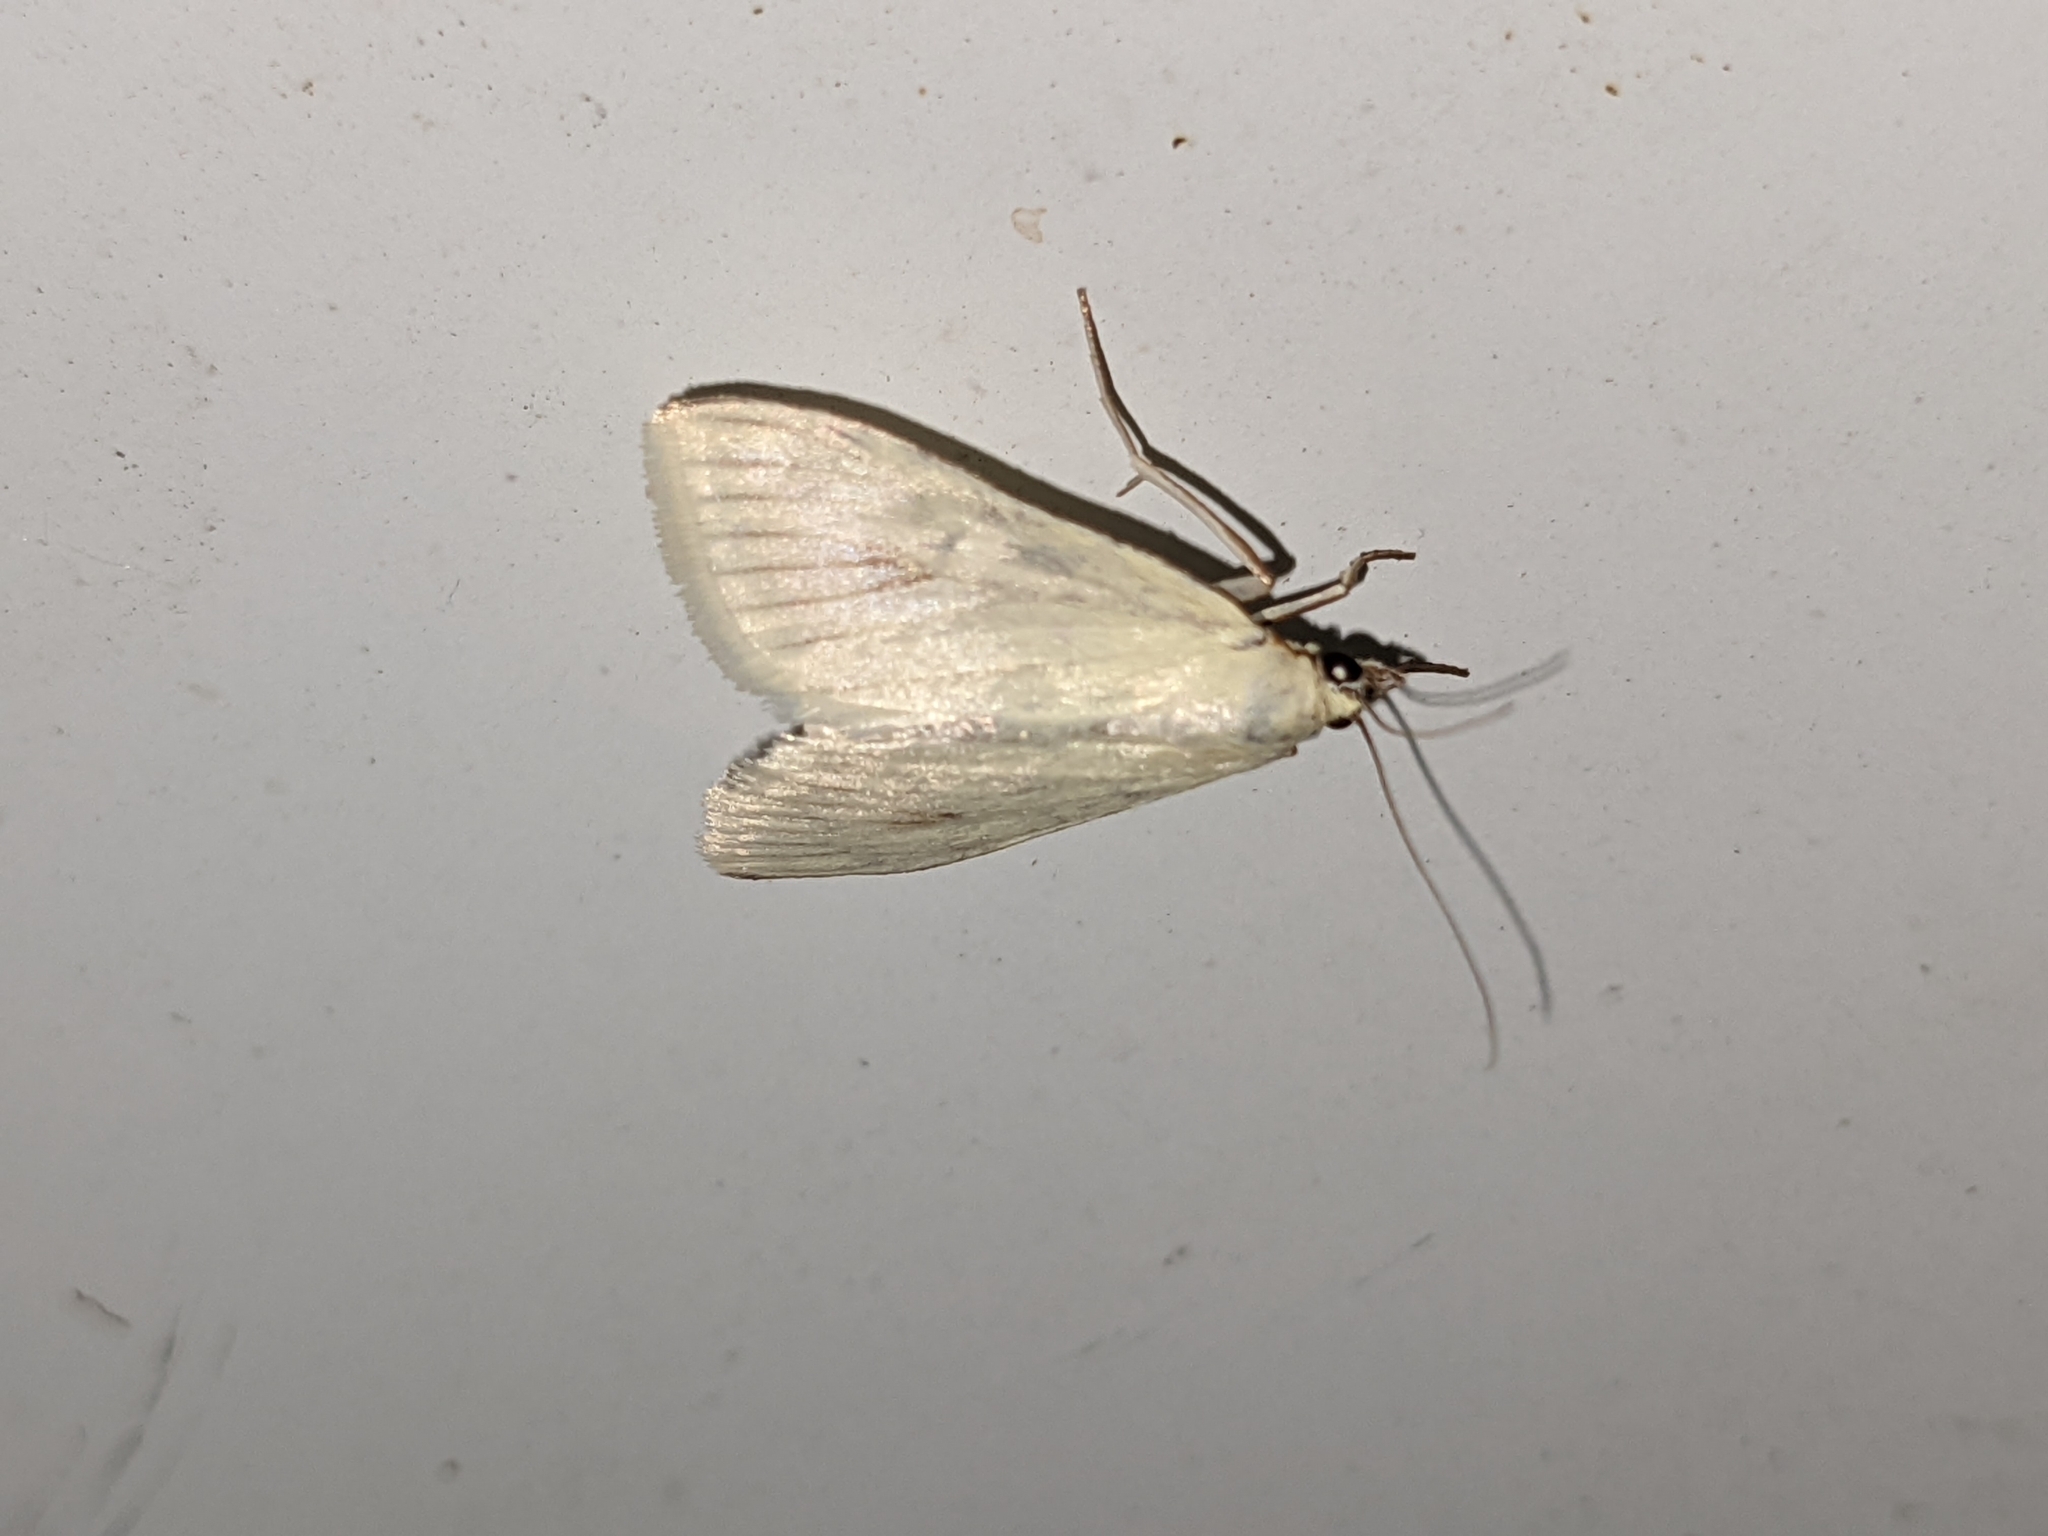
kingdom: Animalia
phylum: Arthropoda
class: Insecta
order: Lepidoptera
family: Crambidae
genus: Sitochroa
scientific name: Sitochroa palealis
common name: Greenish-yellow sitochroa moth
